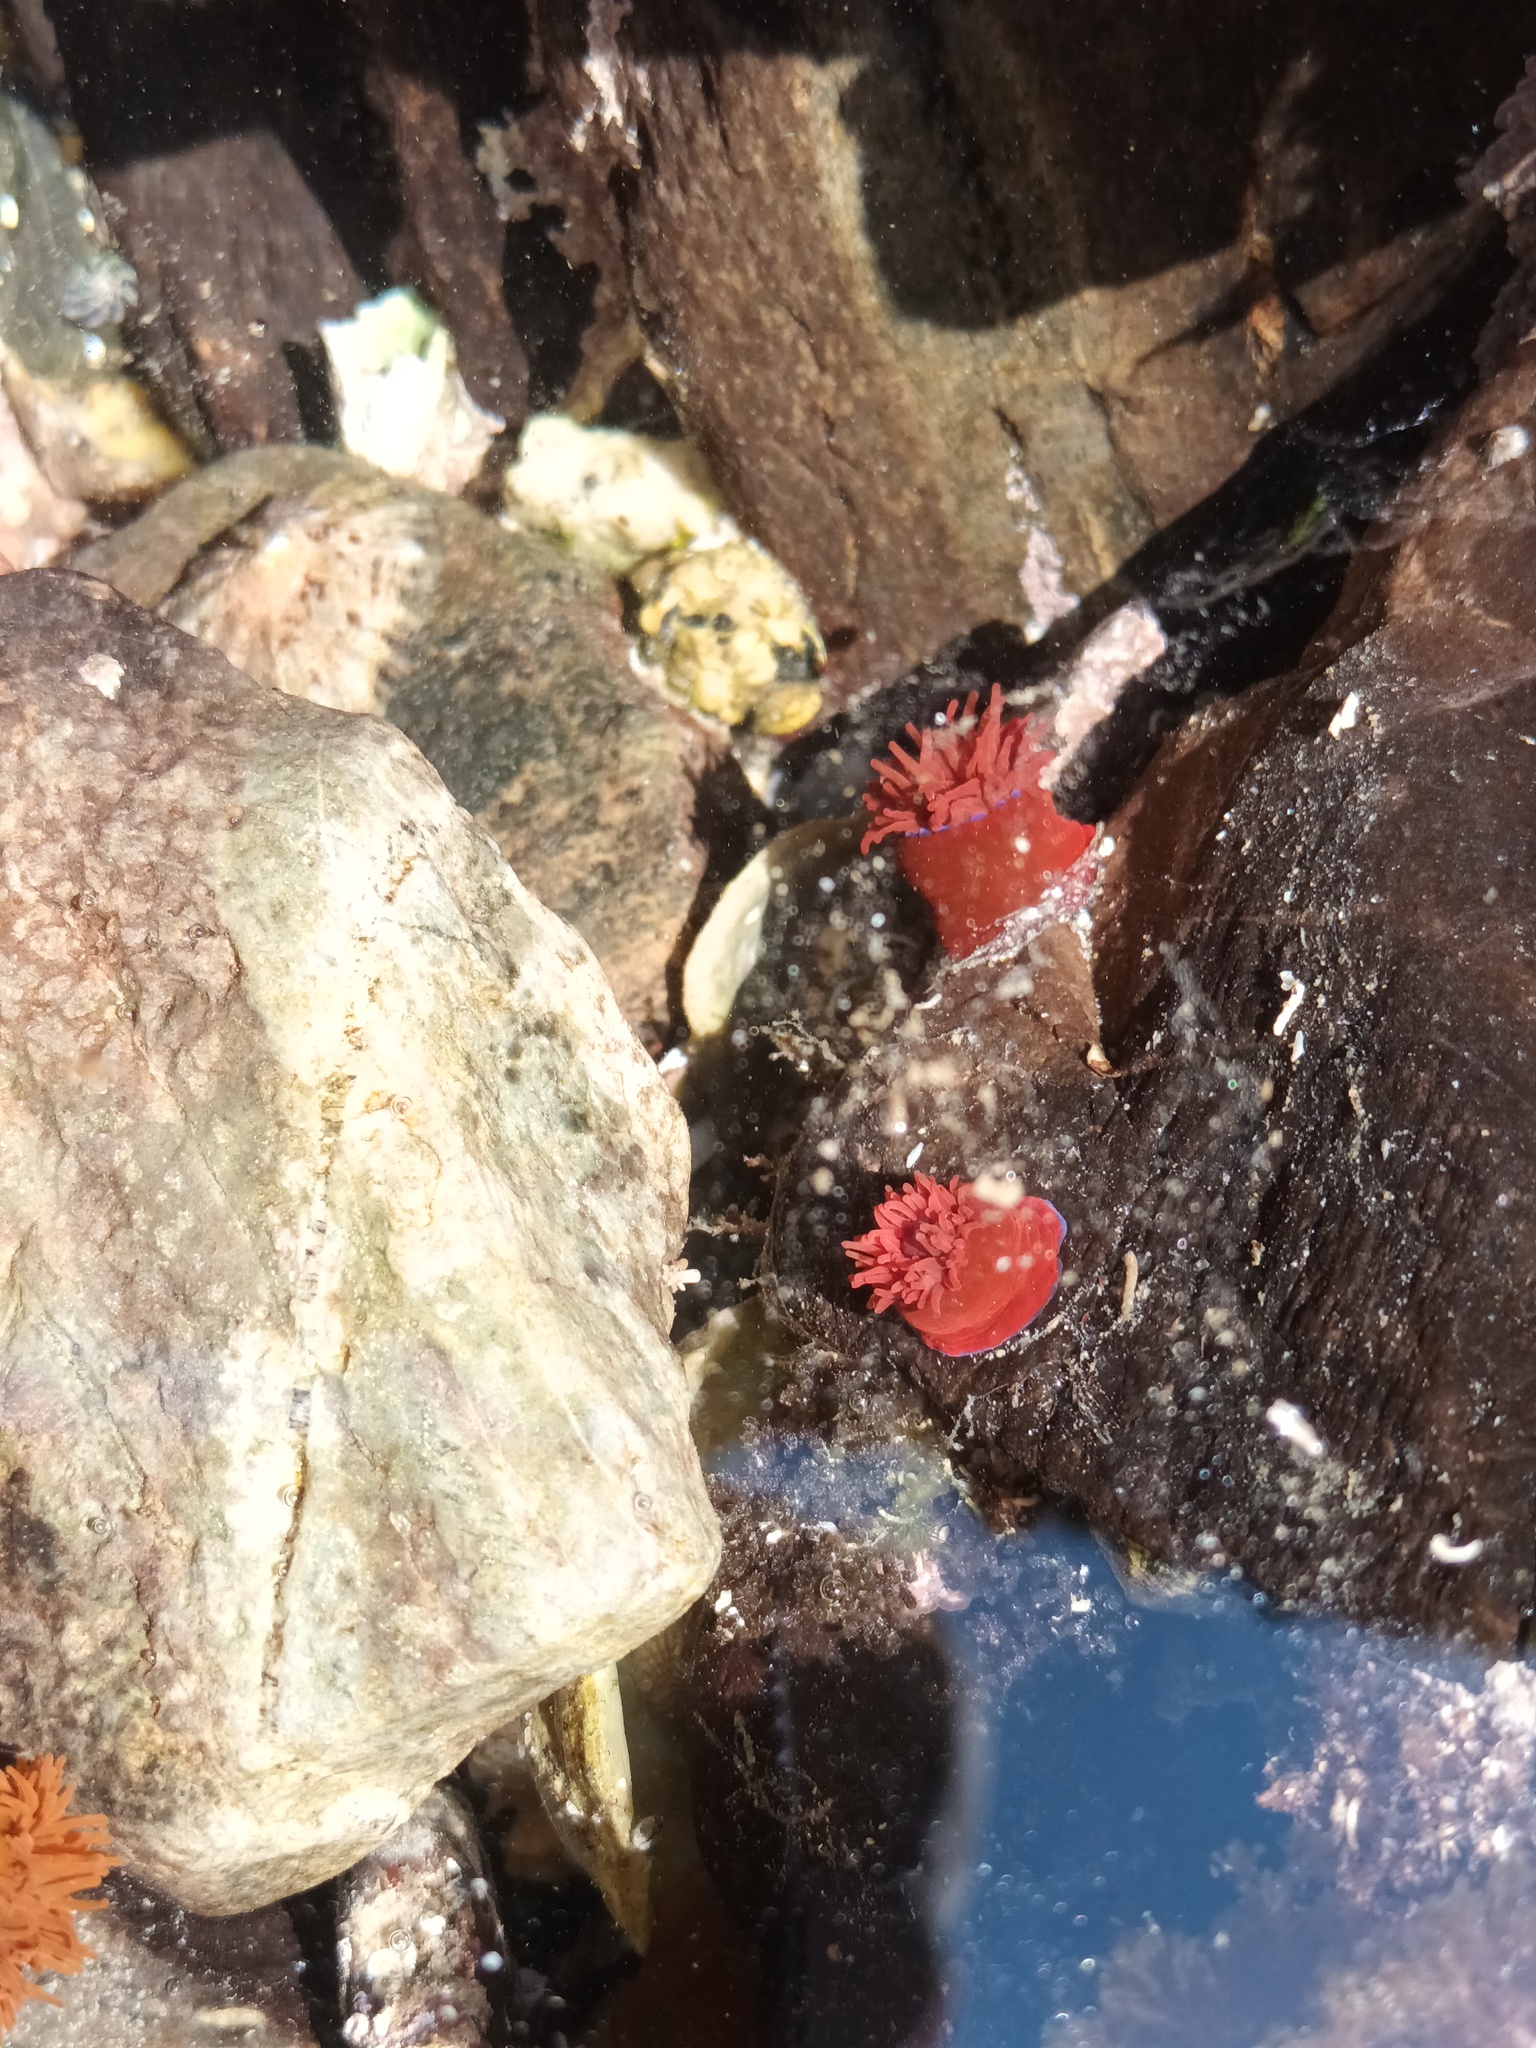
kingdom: Animalia
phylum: Cnidaria
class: Anthozoa
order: Actiniaria
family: Actiniidae
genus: Actinia
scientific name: Actinia equina
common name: Beadlet anemone
